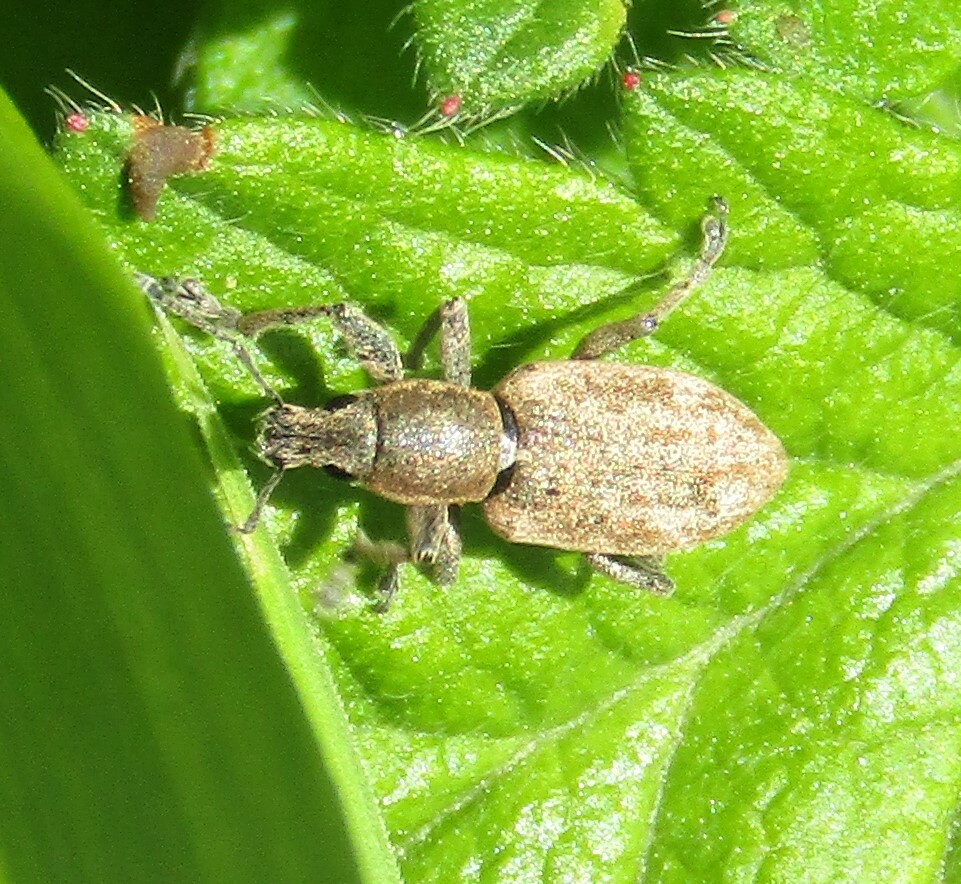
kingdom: Animalia
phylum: Arthropoda
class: Insecta
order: Coleoptera
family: Curculionidae
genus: Tanymecus
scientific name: Tanymecus palliatus
